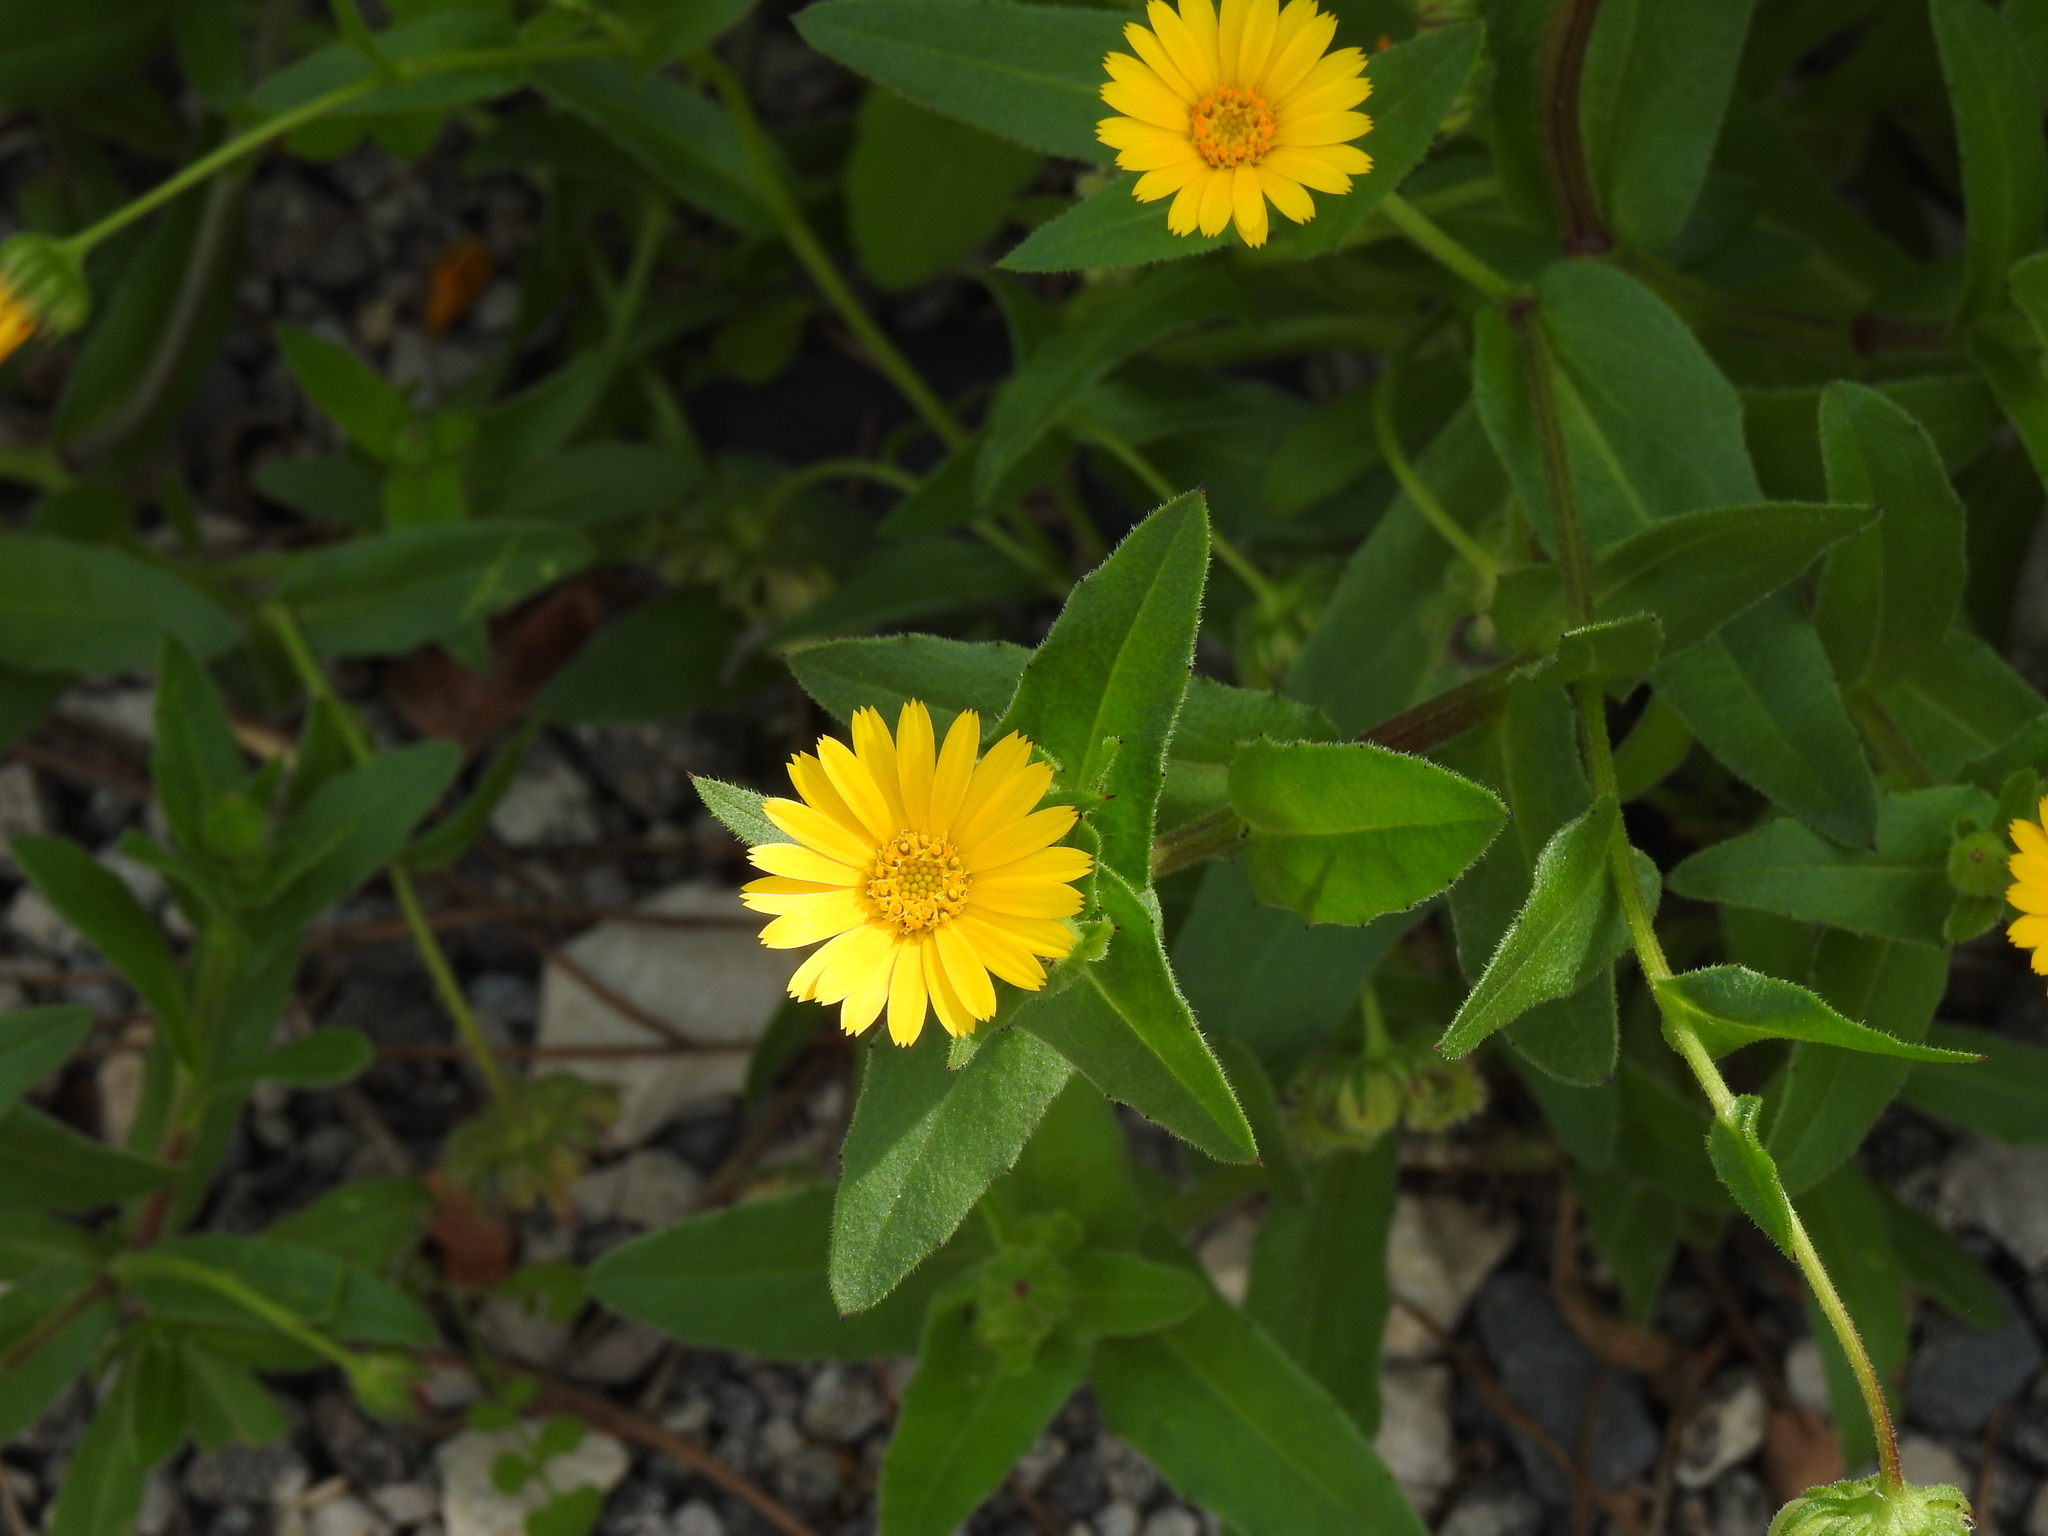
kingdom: Plantae
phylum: Tracheophyta
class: Magnoliopsida
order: Asterales
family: Asteraceae
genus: Calendula
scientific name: Calendula arvensis
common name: Field marigold
